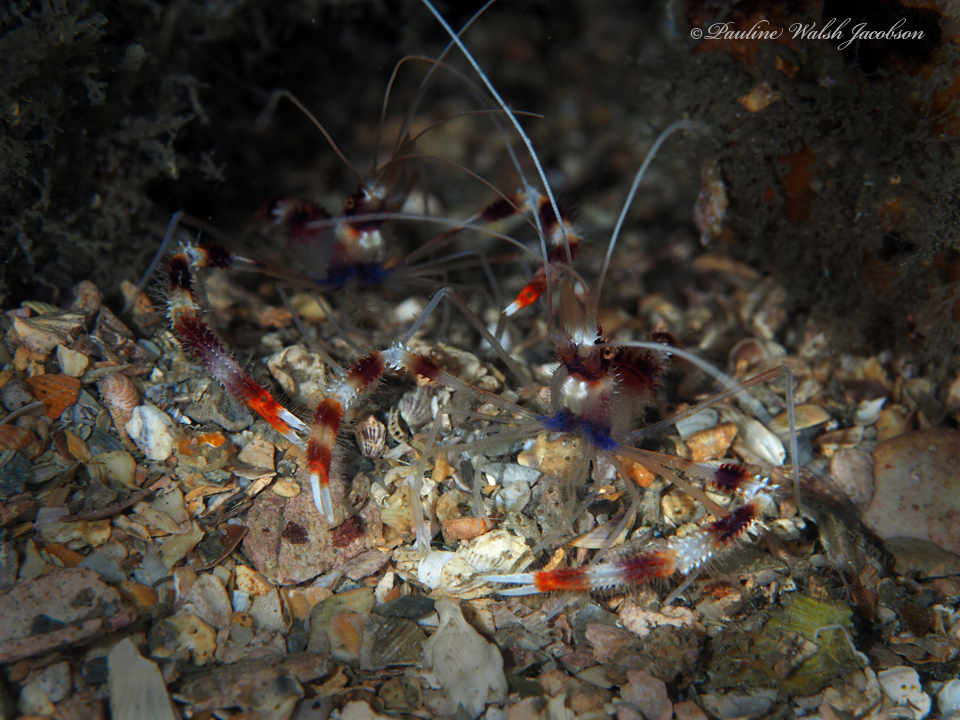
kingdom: Animalia
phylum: Arthropoda
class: Malacostraca
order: Decapoda
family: Stenopodidae
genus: Stenopus
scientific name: Stenopus hispidus
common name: Banded coral shrimp
